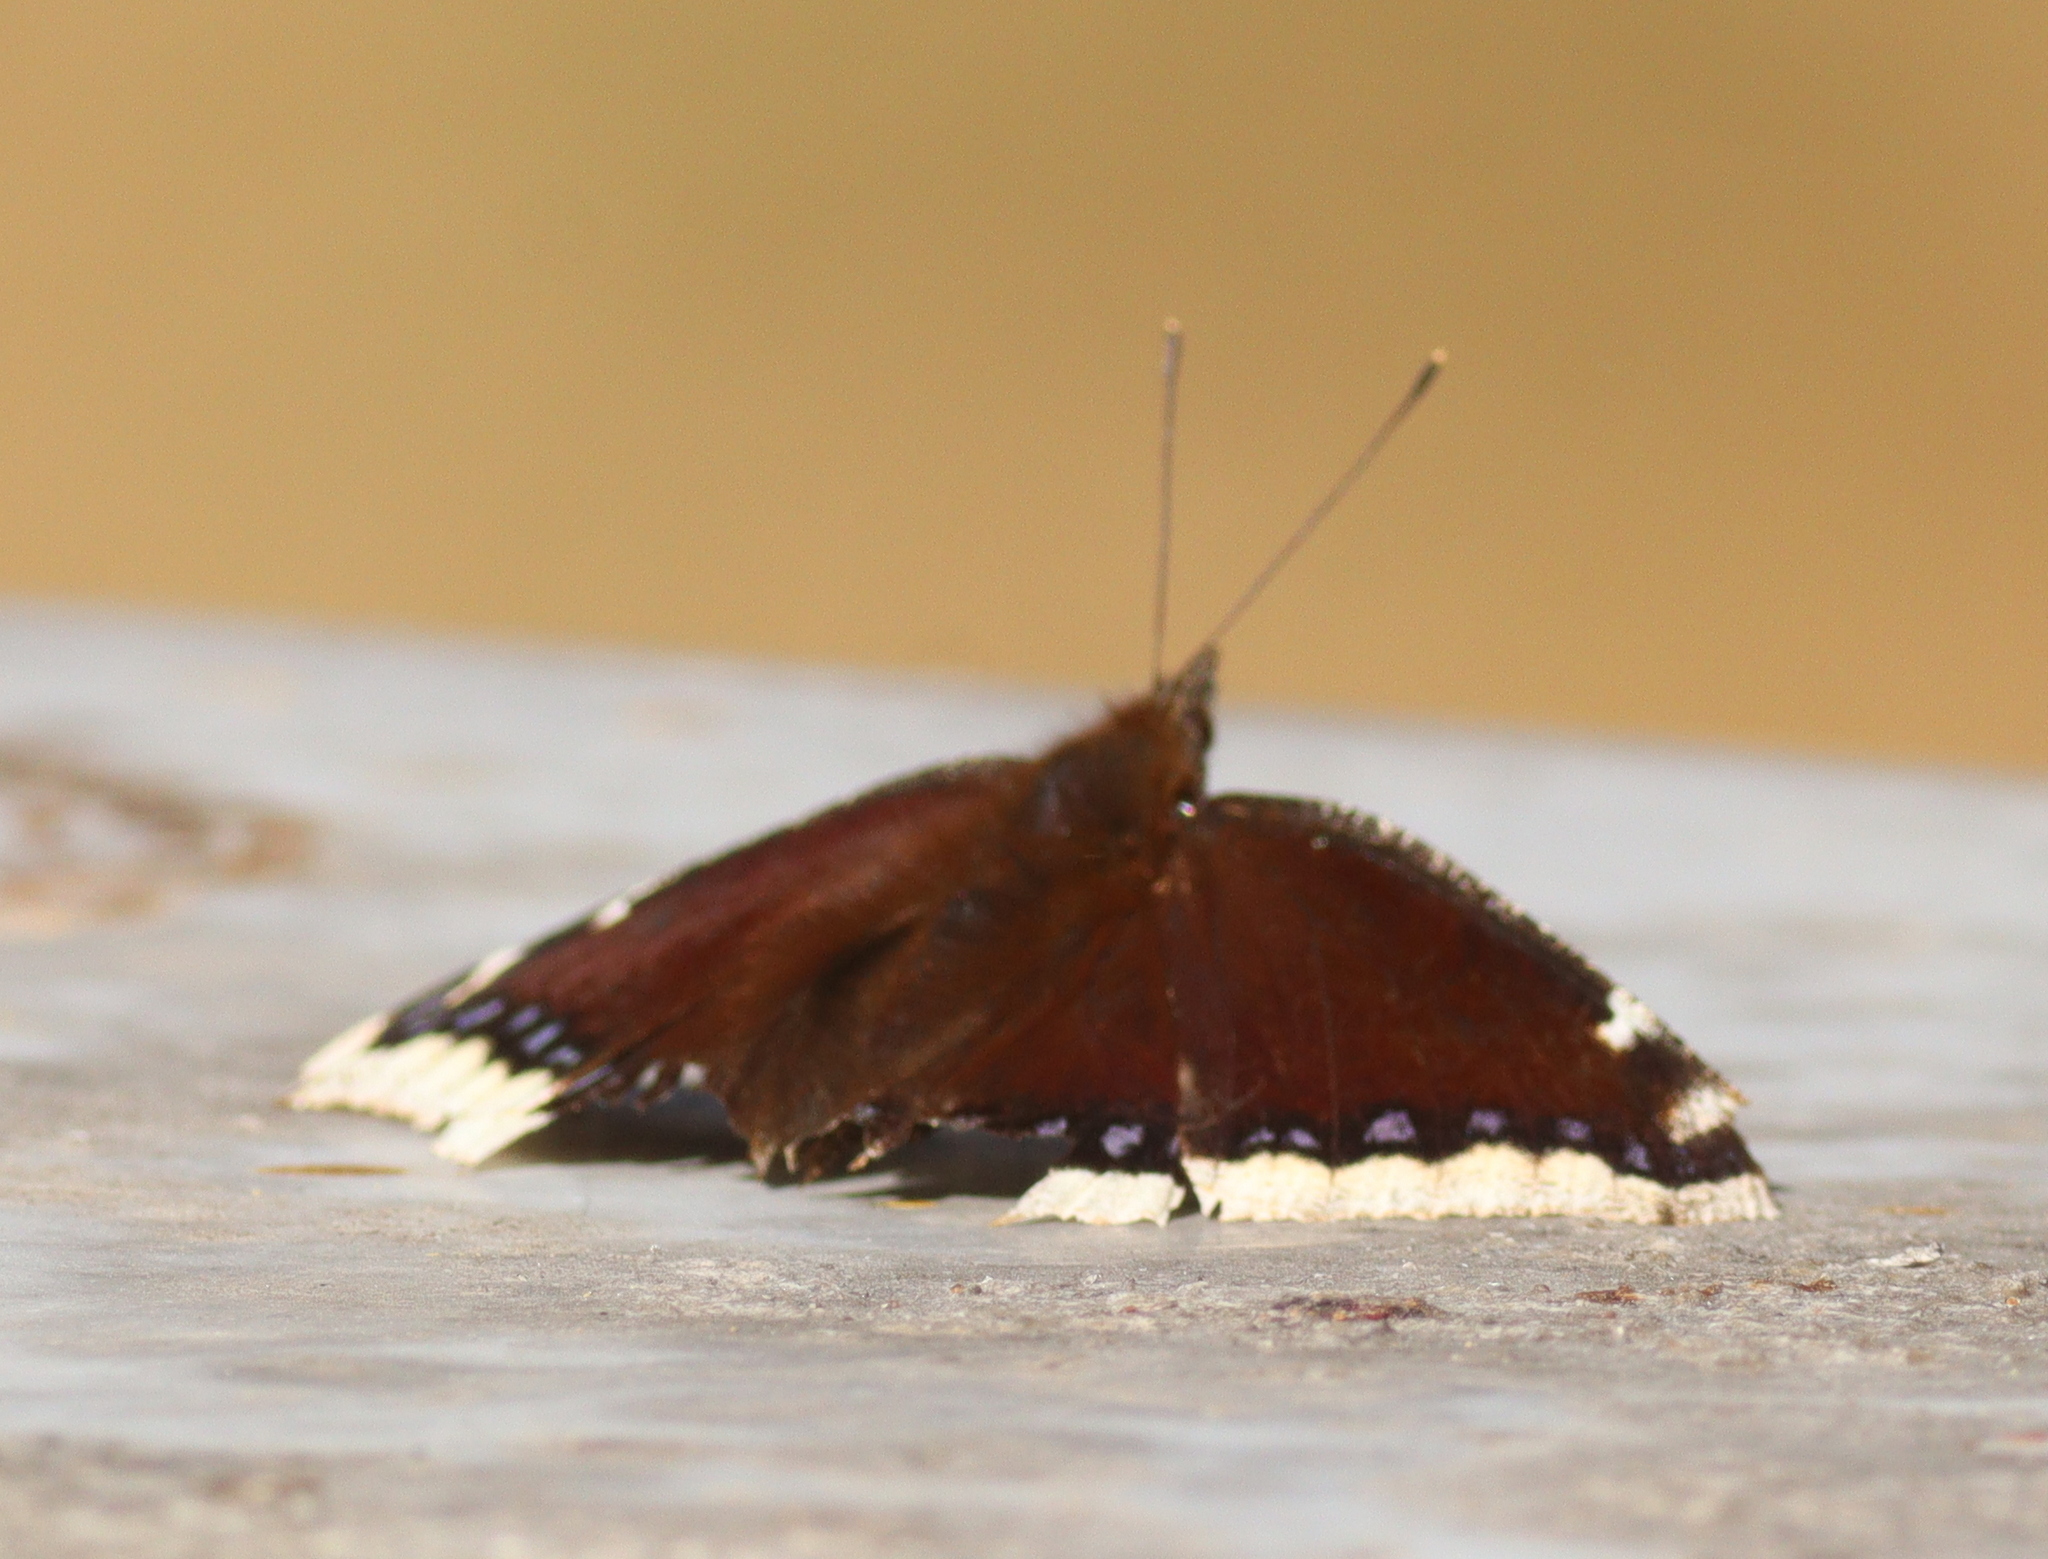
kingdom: Animalia
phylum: Arthropoda
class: Insecta
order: Lepidoptera
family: Nymphalidae
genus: Nymphalis
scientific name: Nymphalis antiopa
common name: Camberwell beauty
